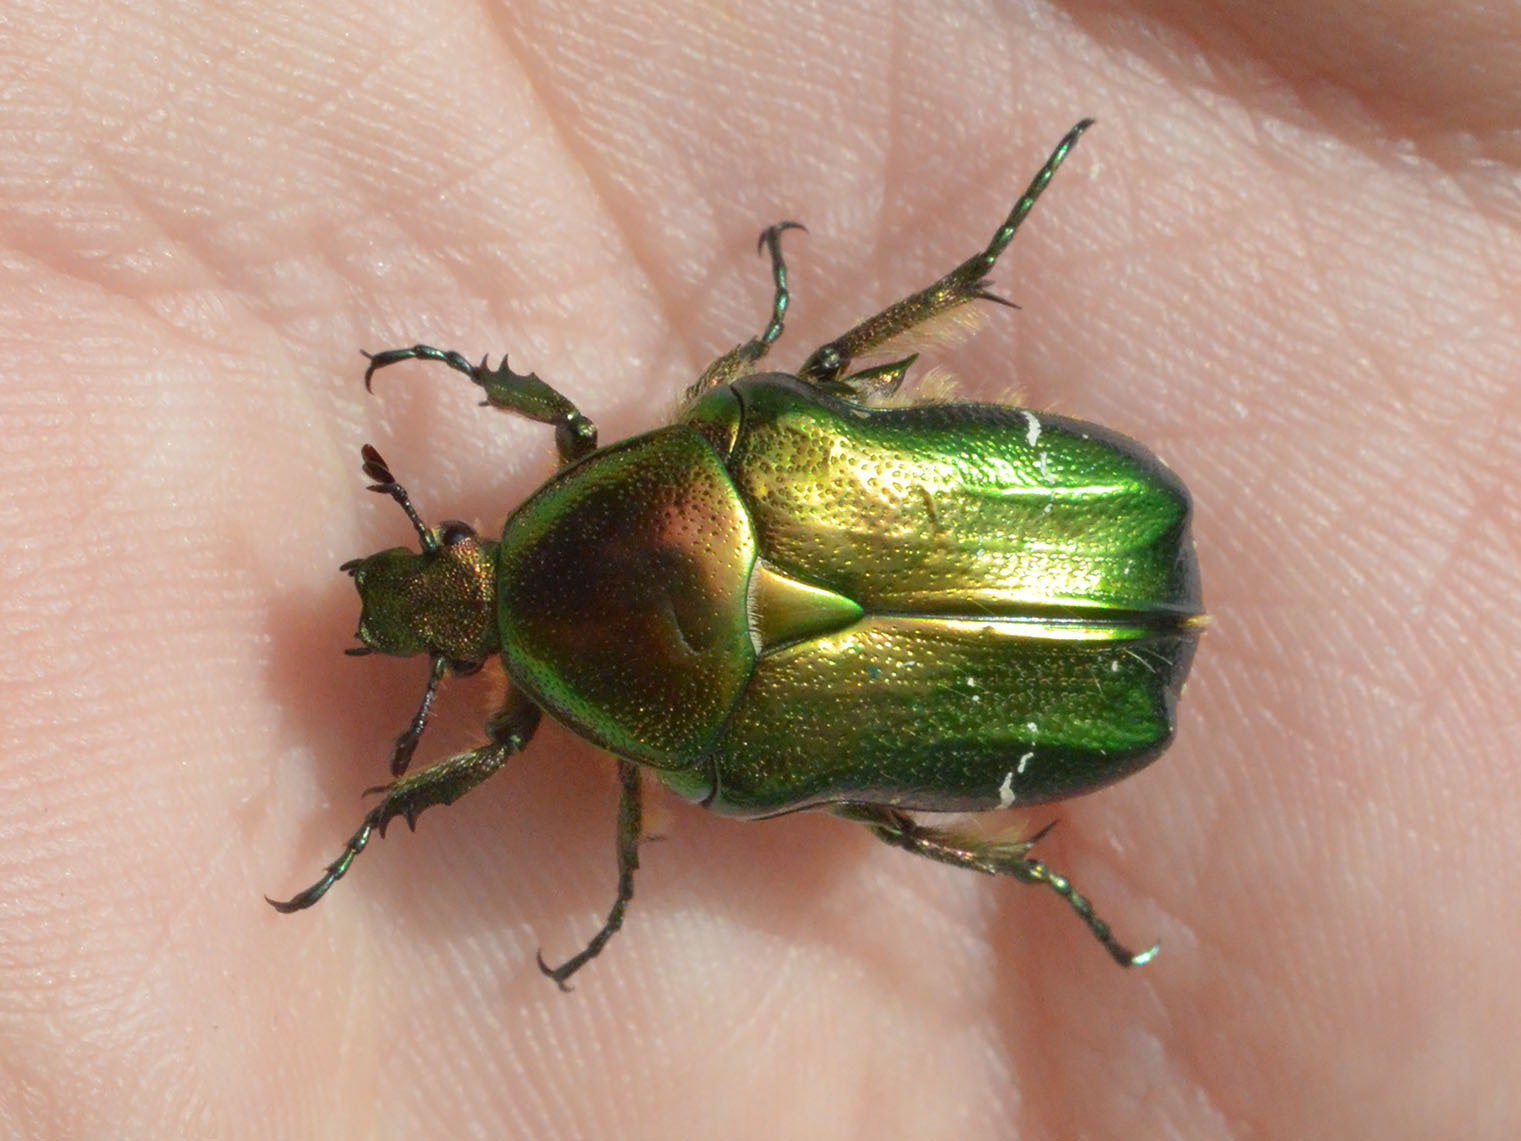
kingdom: Animalia
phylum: Arthropoda
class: Insecta
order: Coleoptera
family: Scarabaeidae
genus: Cetonia
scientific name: Cetonia aurata
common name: Rose chafer
